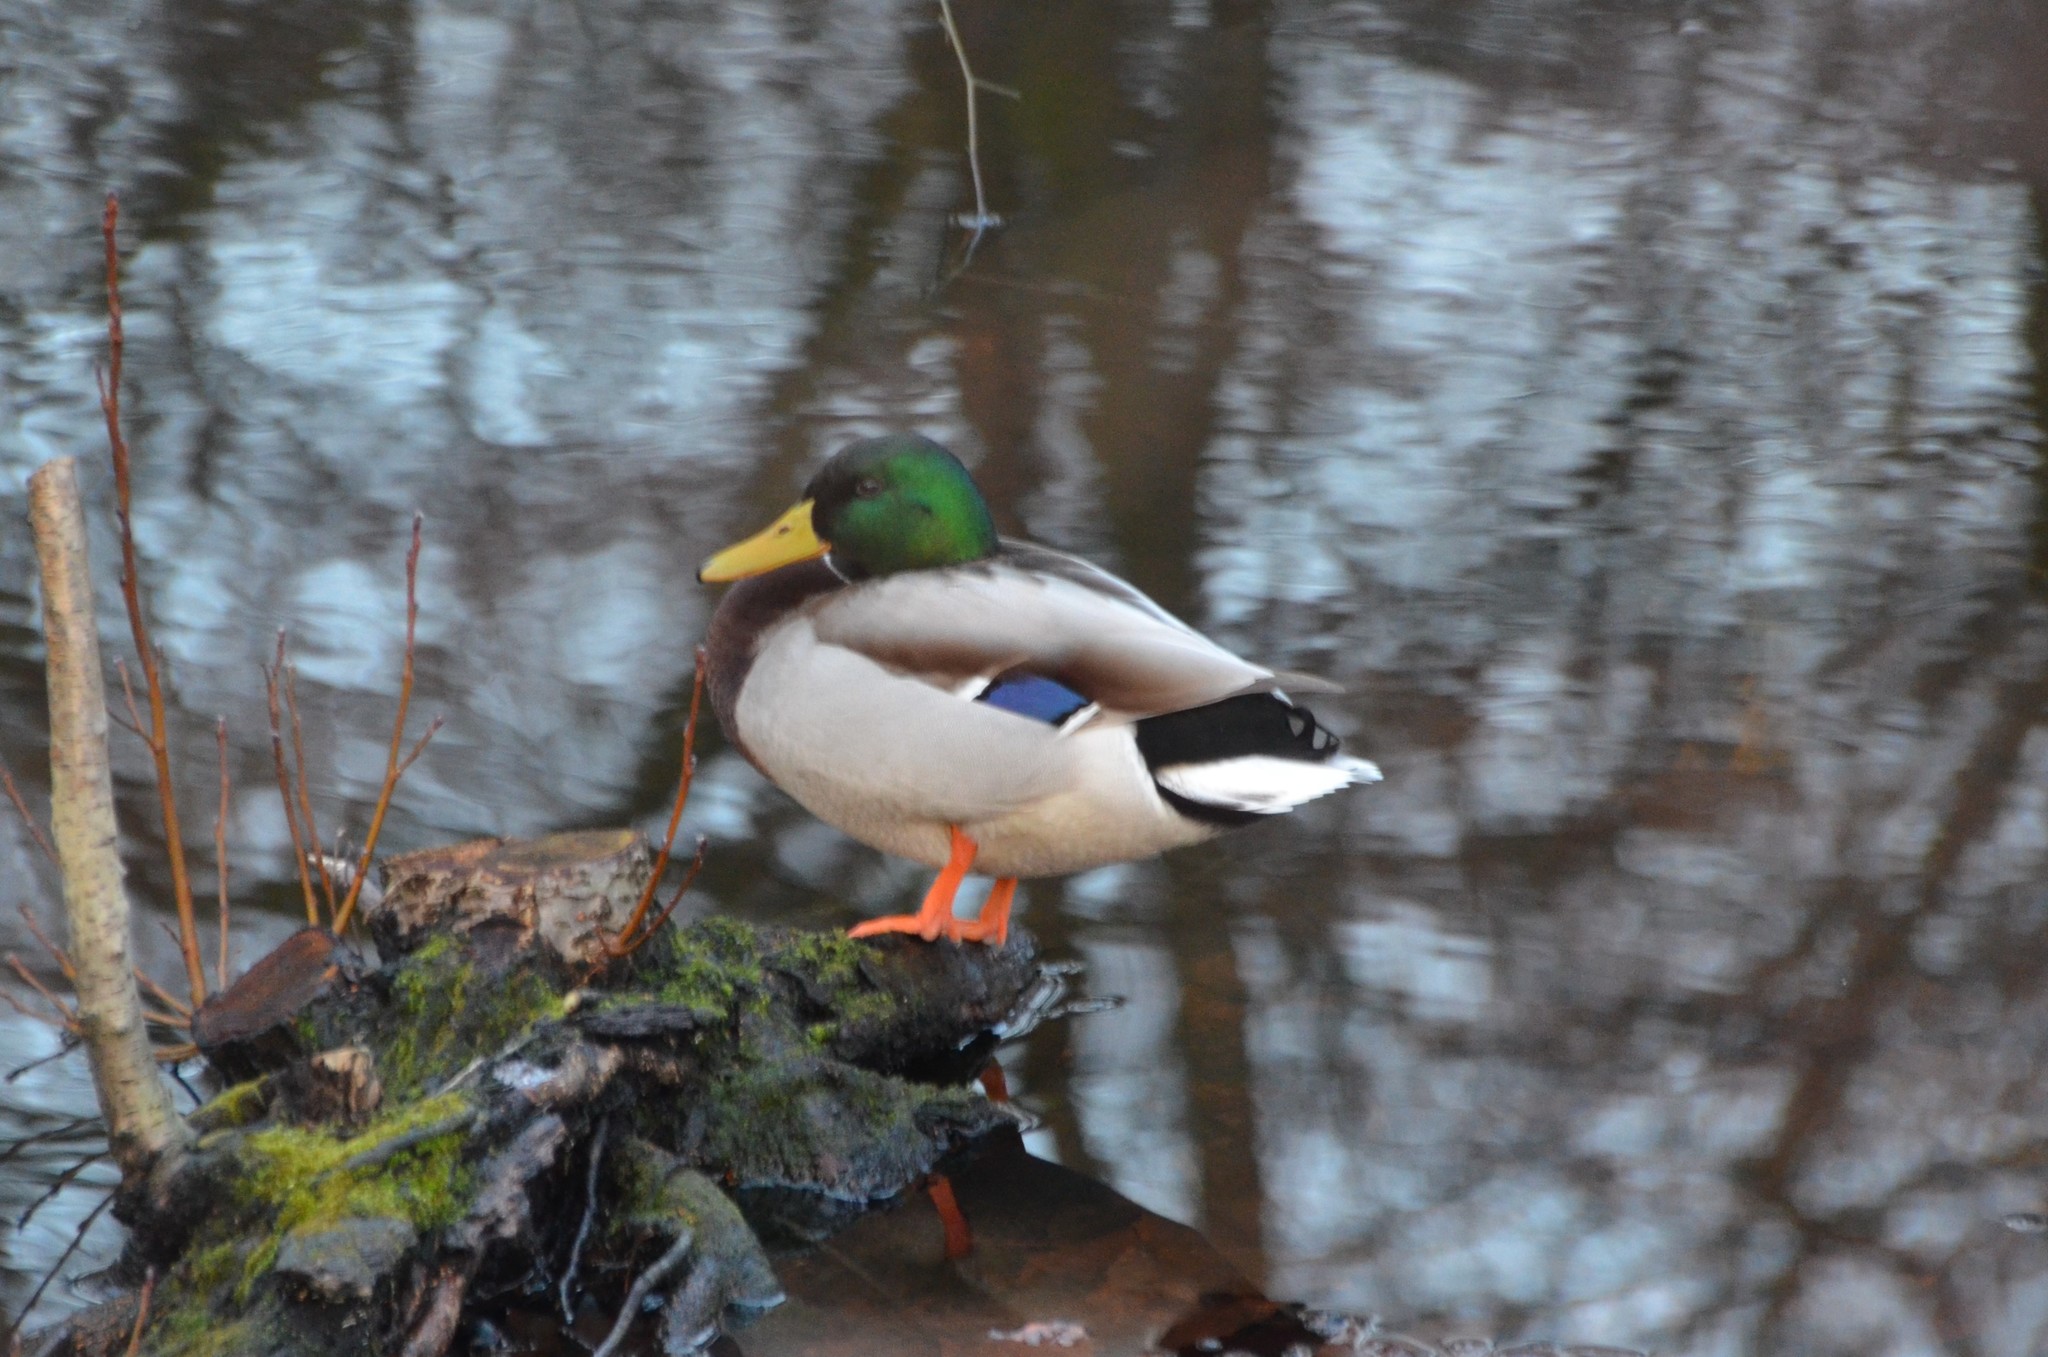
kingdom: Animalia
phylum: Chordata
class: Aves
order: Anseriformes
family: Anatidae
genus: Anas
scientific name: Anas platyrhynchos
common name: Mallard
